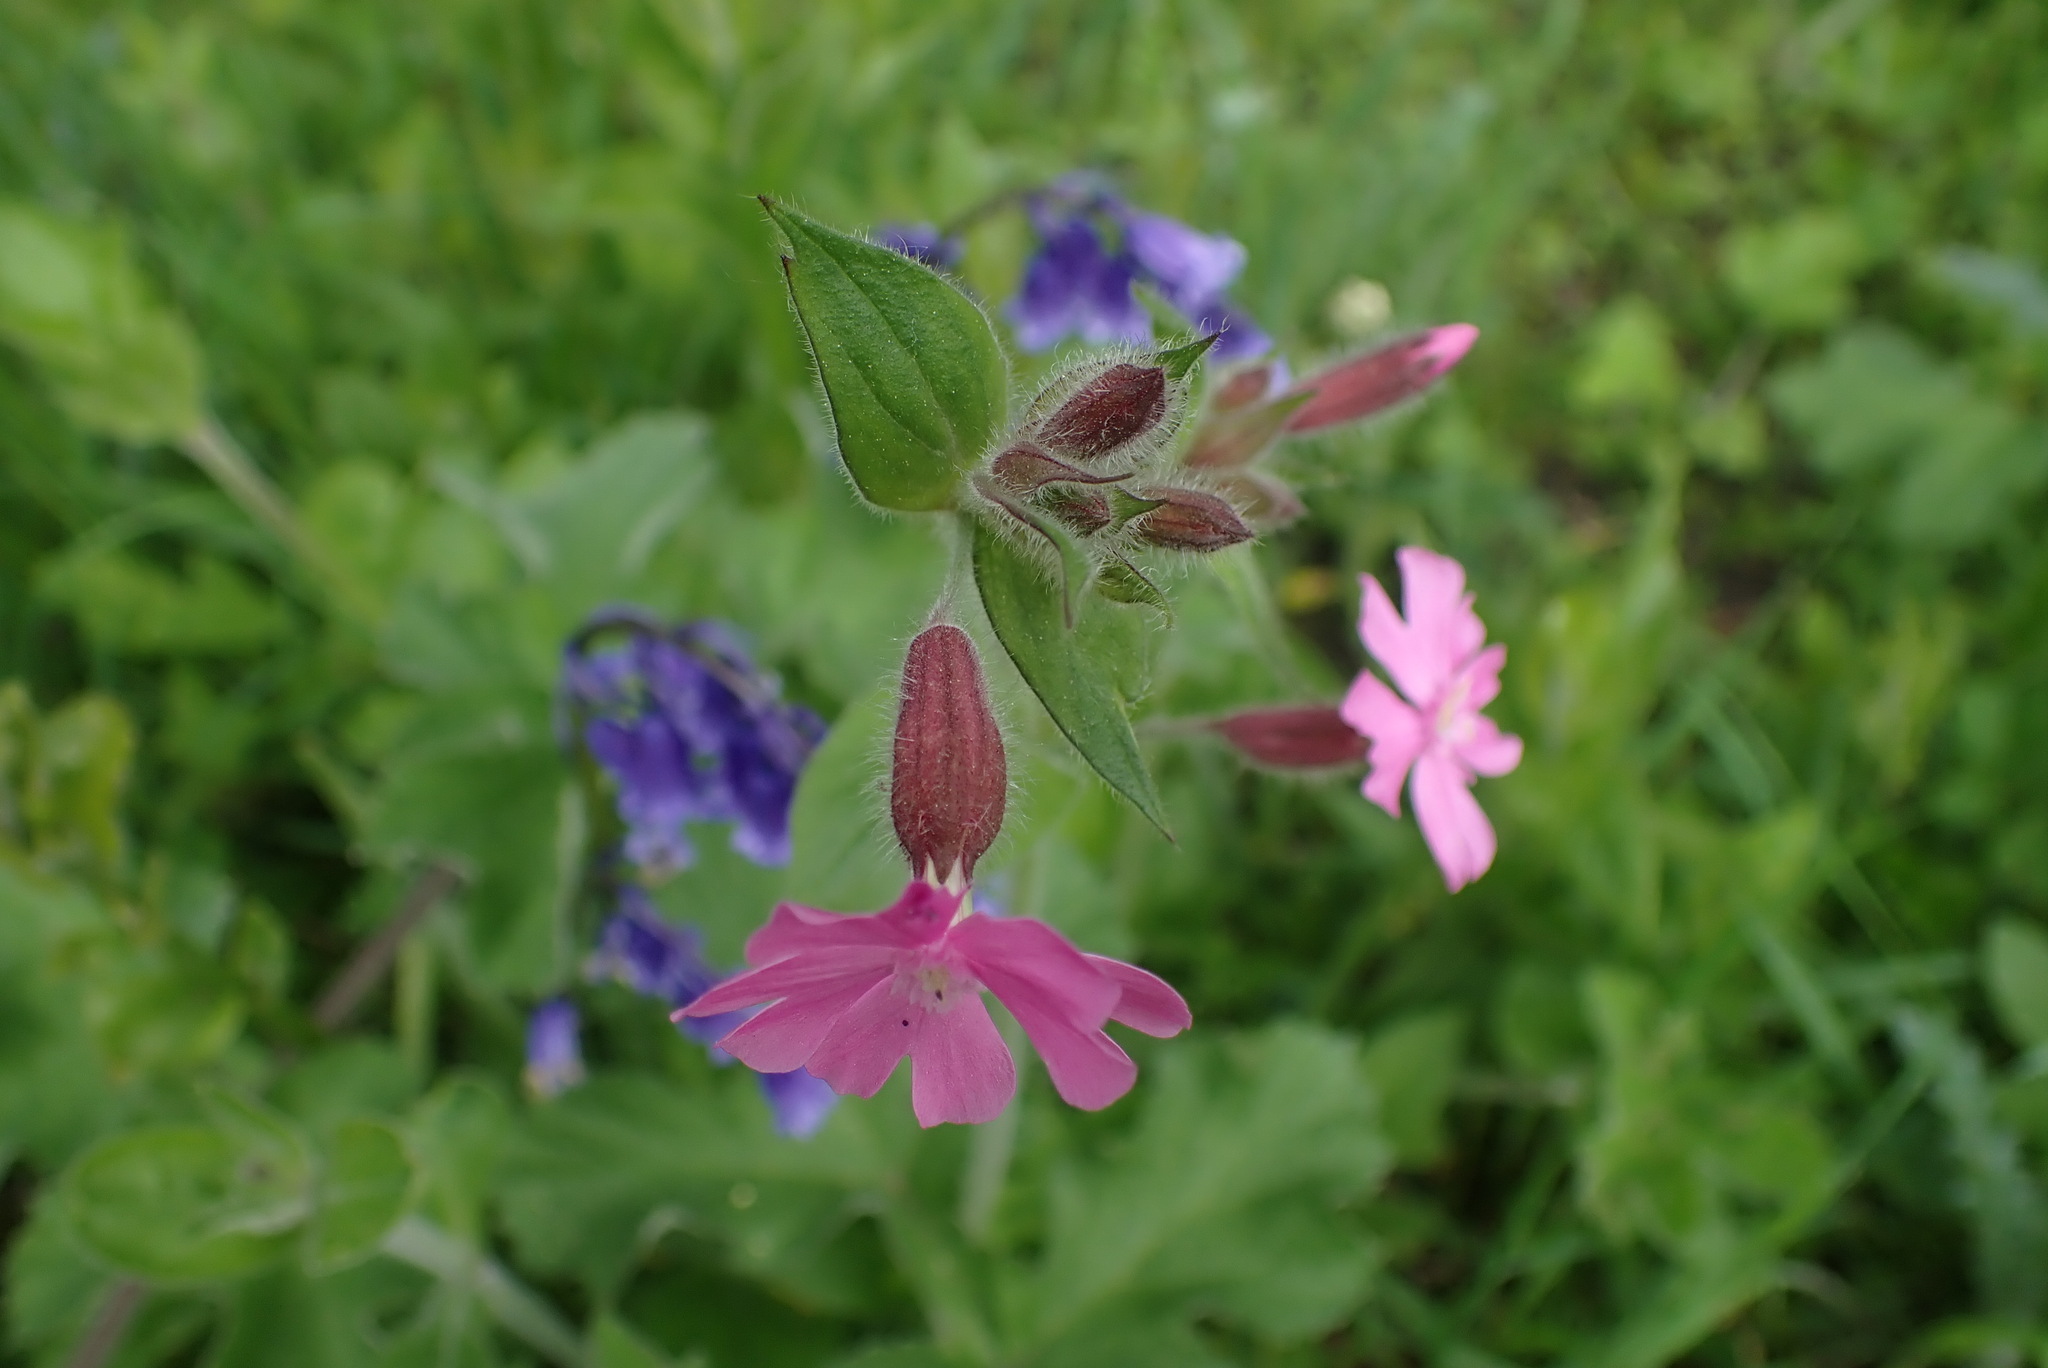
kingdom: Plantae
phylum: Tracheophyta
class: Magnoliopsida
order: Caryophyllales
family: Caryophyllaceae
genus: Silene
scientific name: Silene dioica
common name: Red campion
